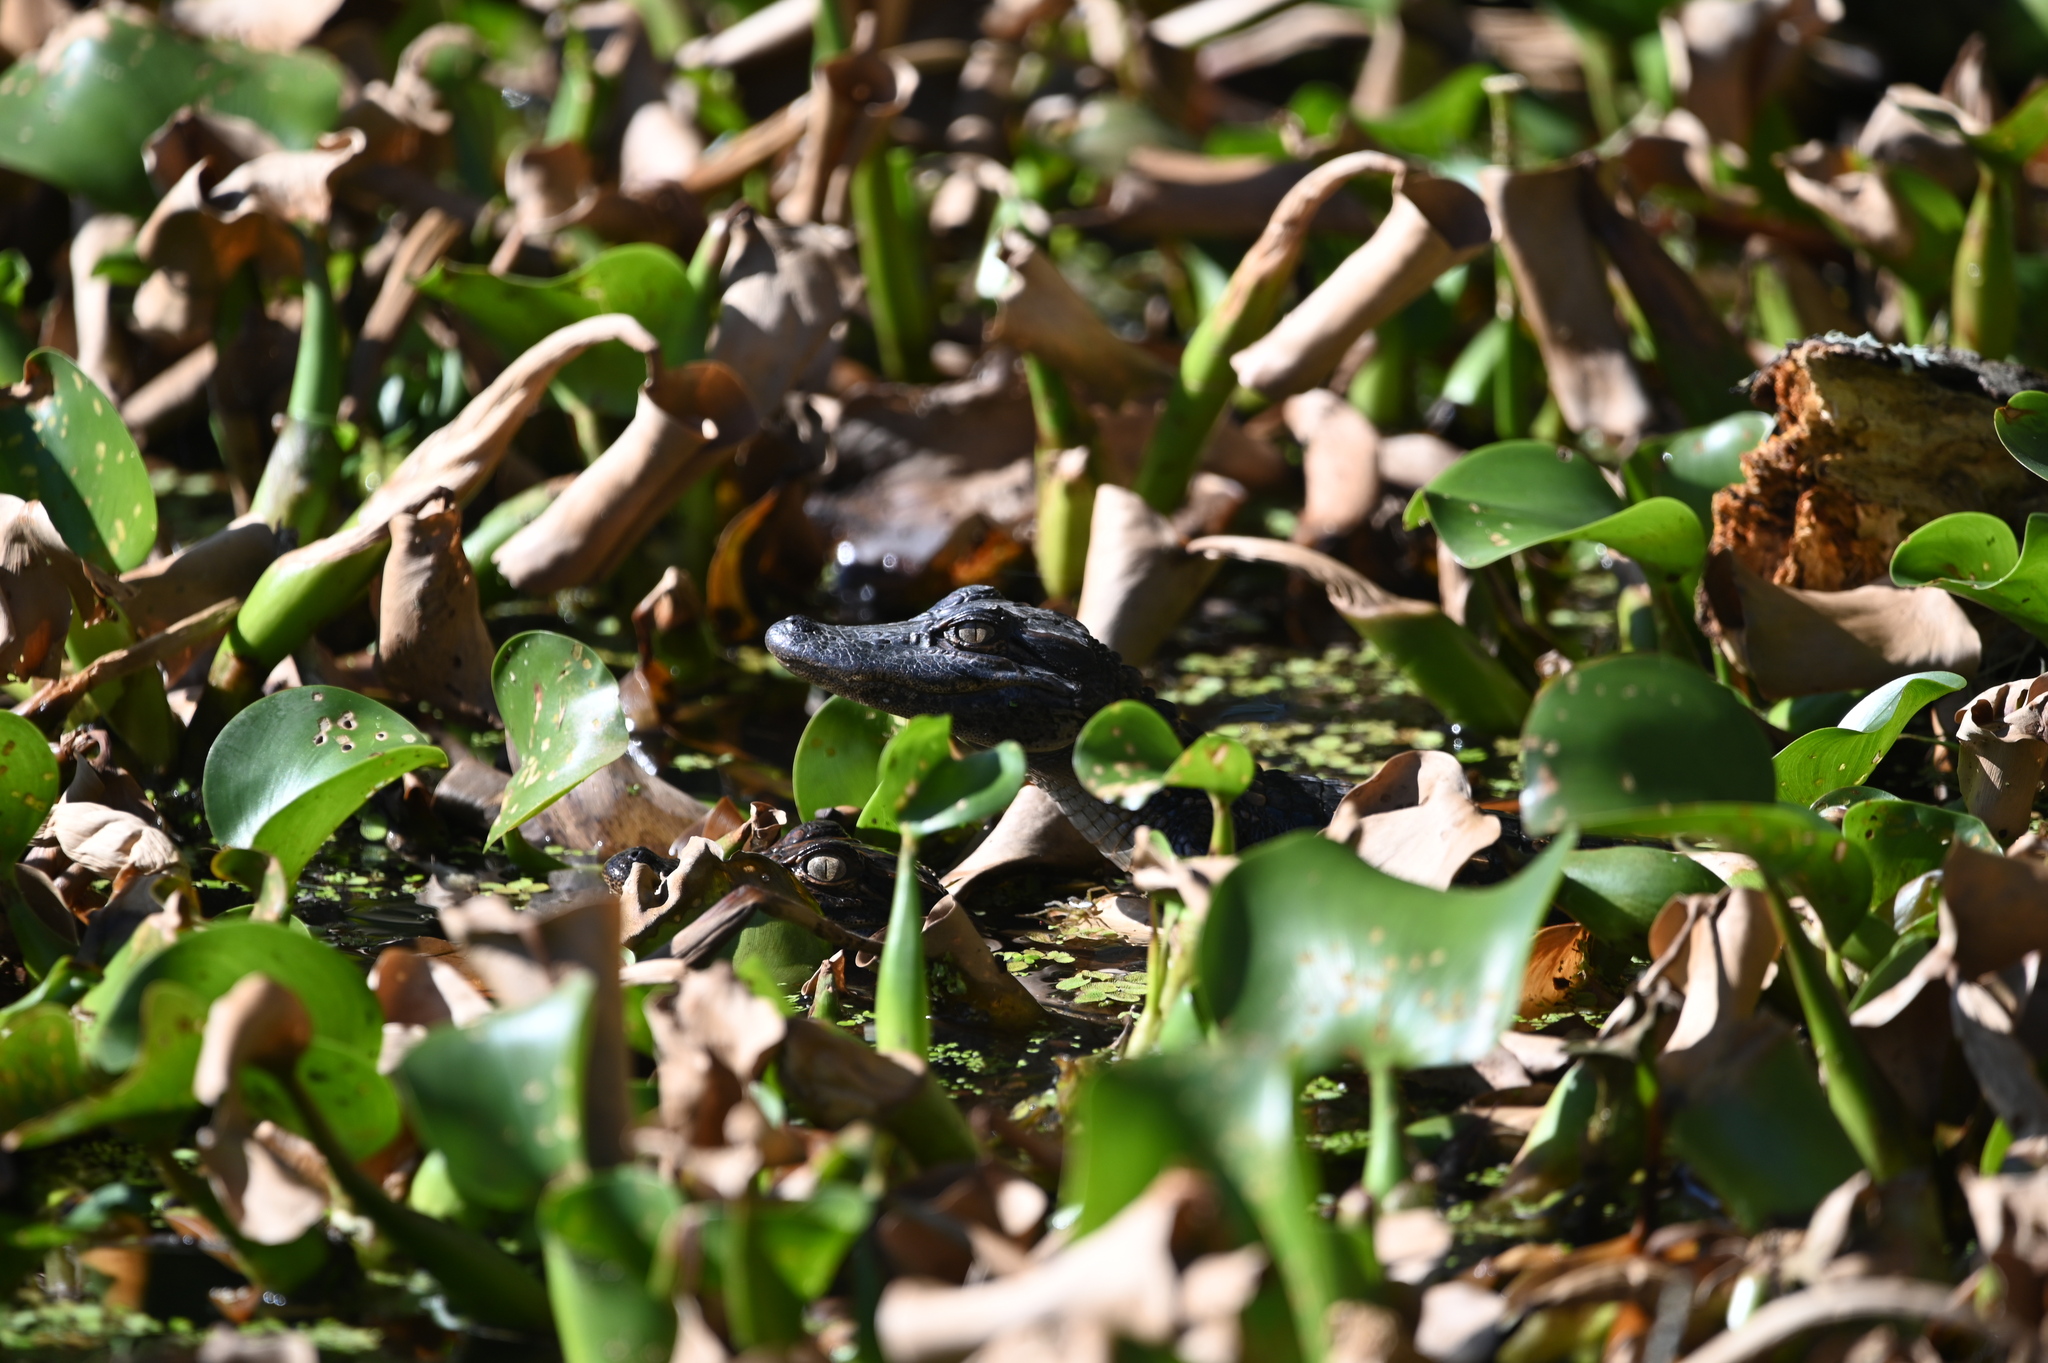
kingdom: Animalia
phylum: Chordata
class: Crocodylia
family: Alligatoridae
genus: Alligator
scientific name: Alligator mississippiensis
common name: American alligator
